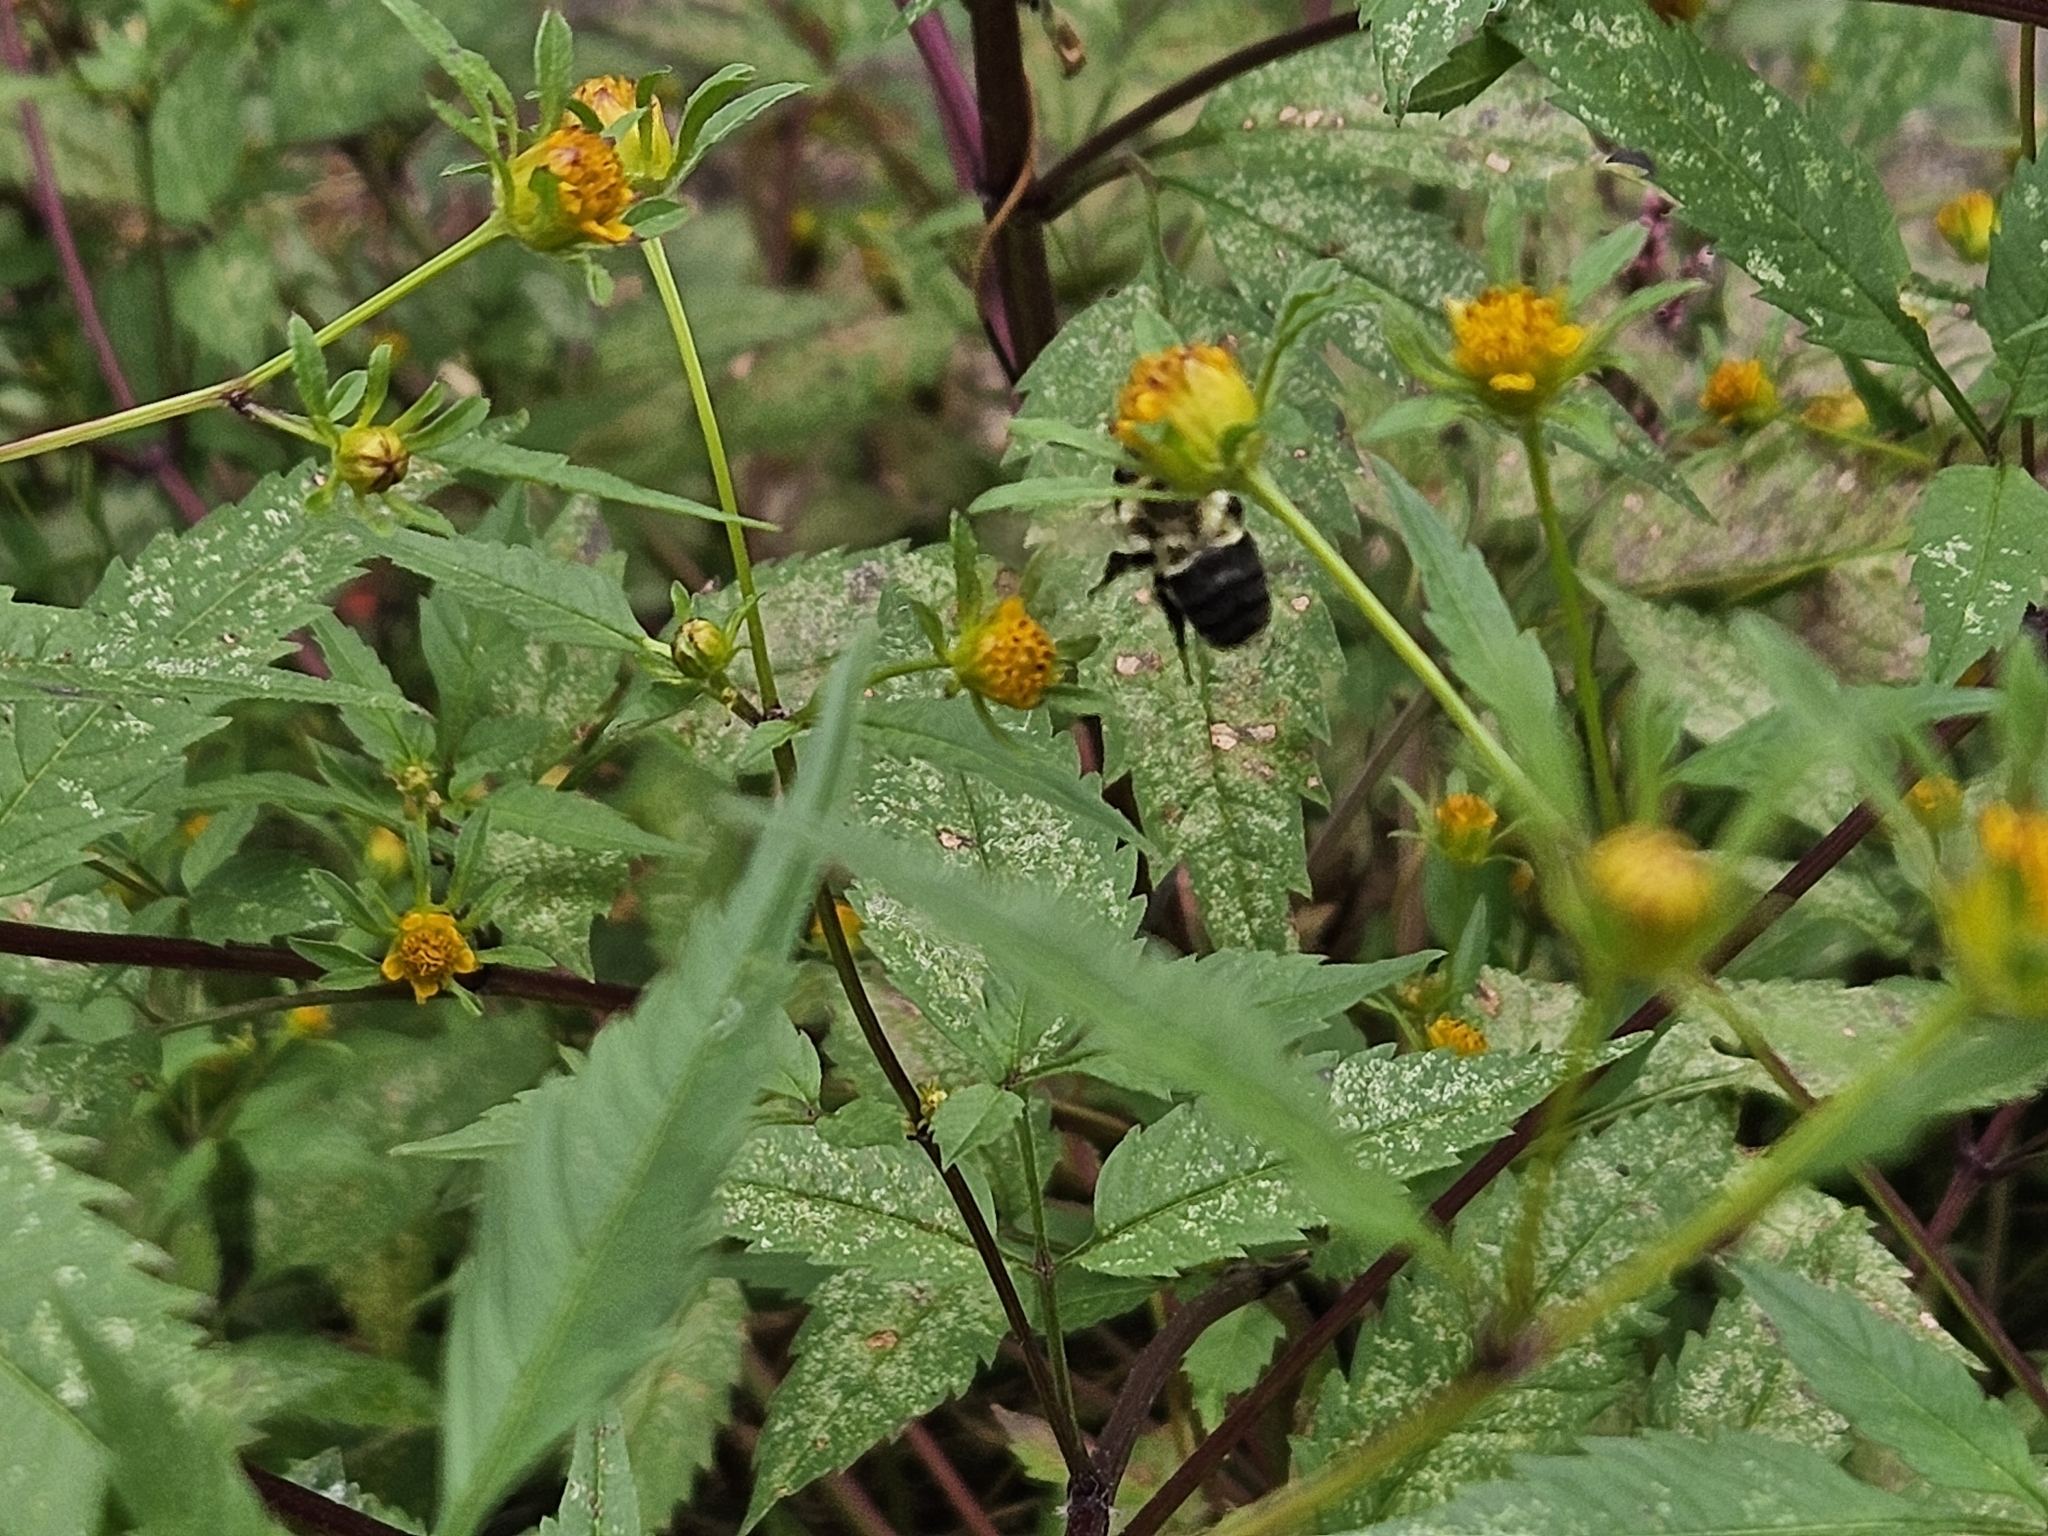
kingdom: Animalia
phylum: Arthropoda
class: Insecta
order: Hymenoptera
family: Apidae
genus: Bombus
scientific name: Bombus impatiens
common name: Common eastern bumble bee
